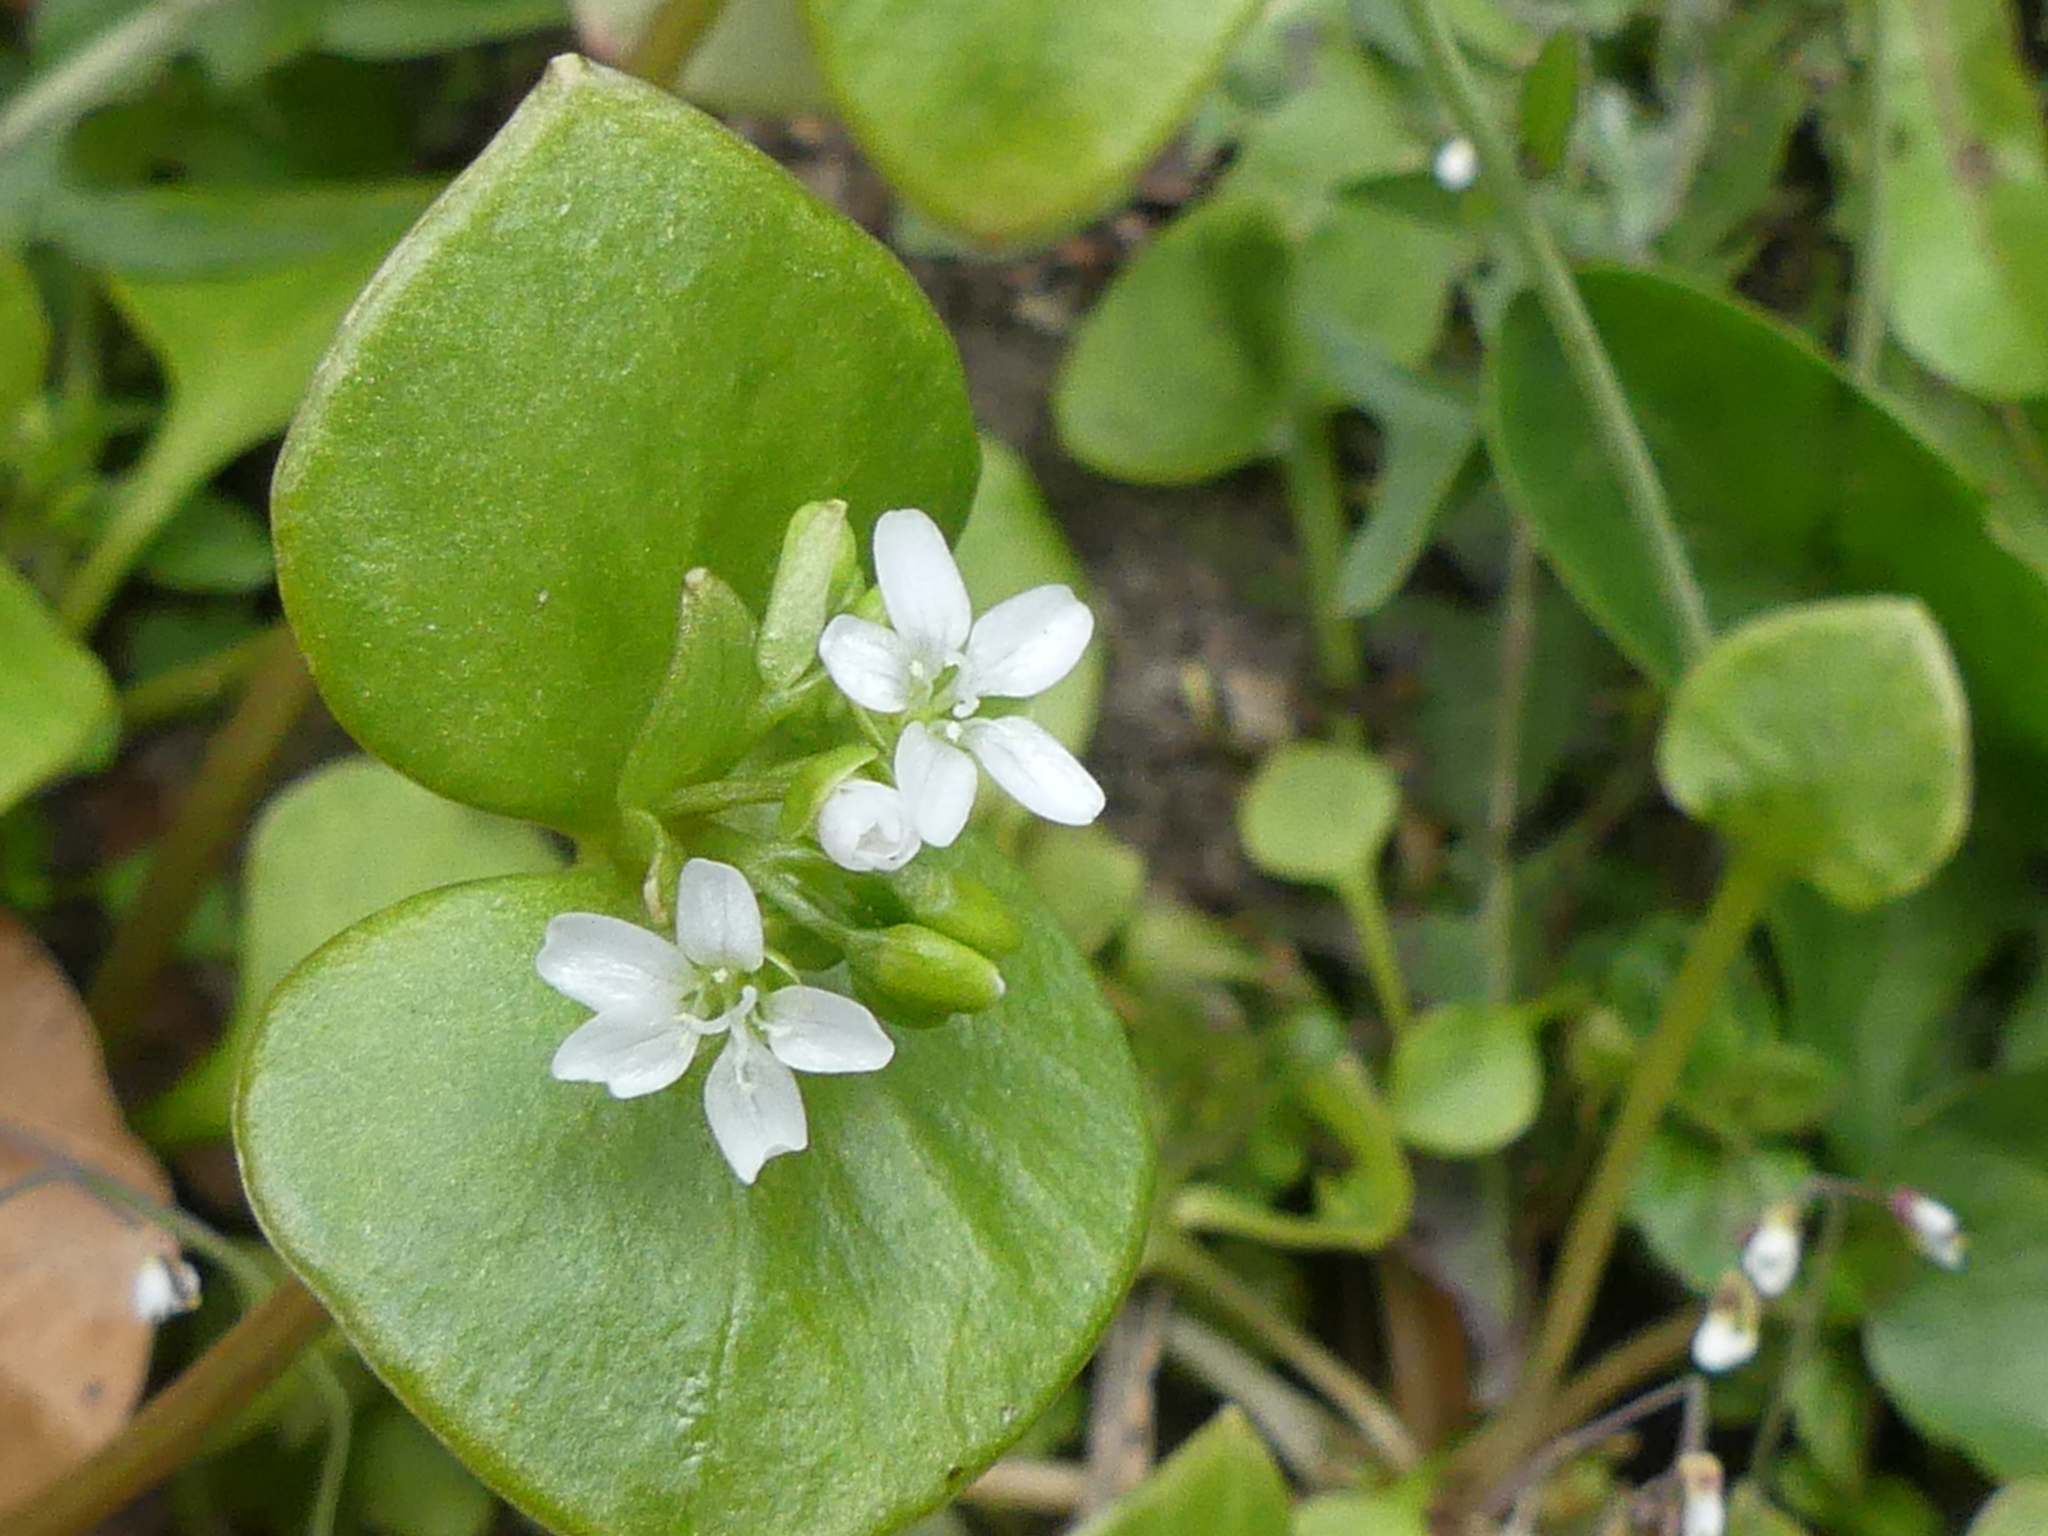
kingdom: Plantae
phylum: Tracheophyta
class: Magnoliopsida
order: Caryophyllales
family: Montiaceae
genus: Claytonia
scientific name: Claytonia perfoliata
